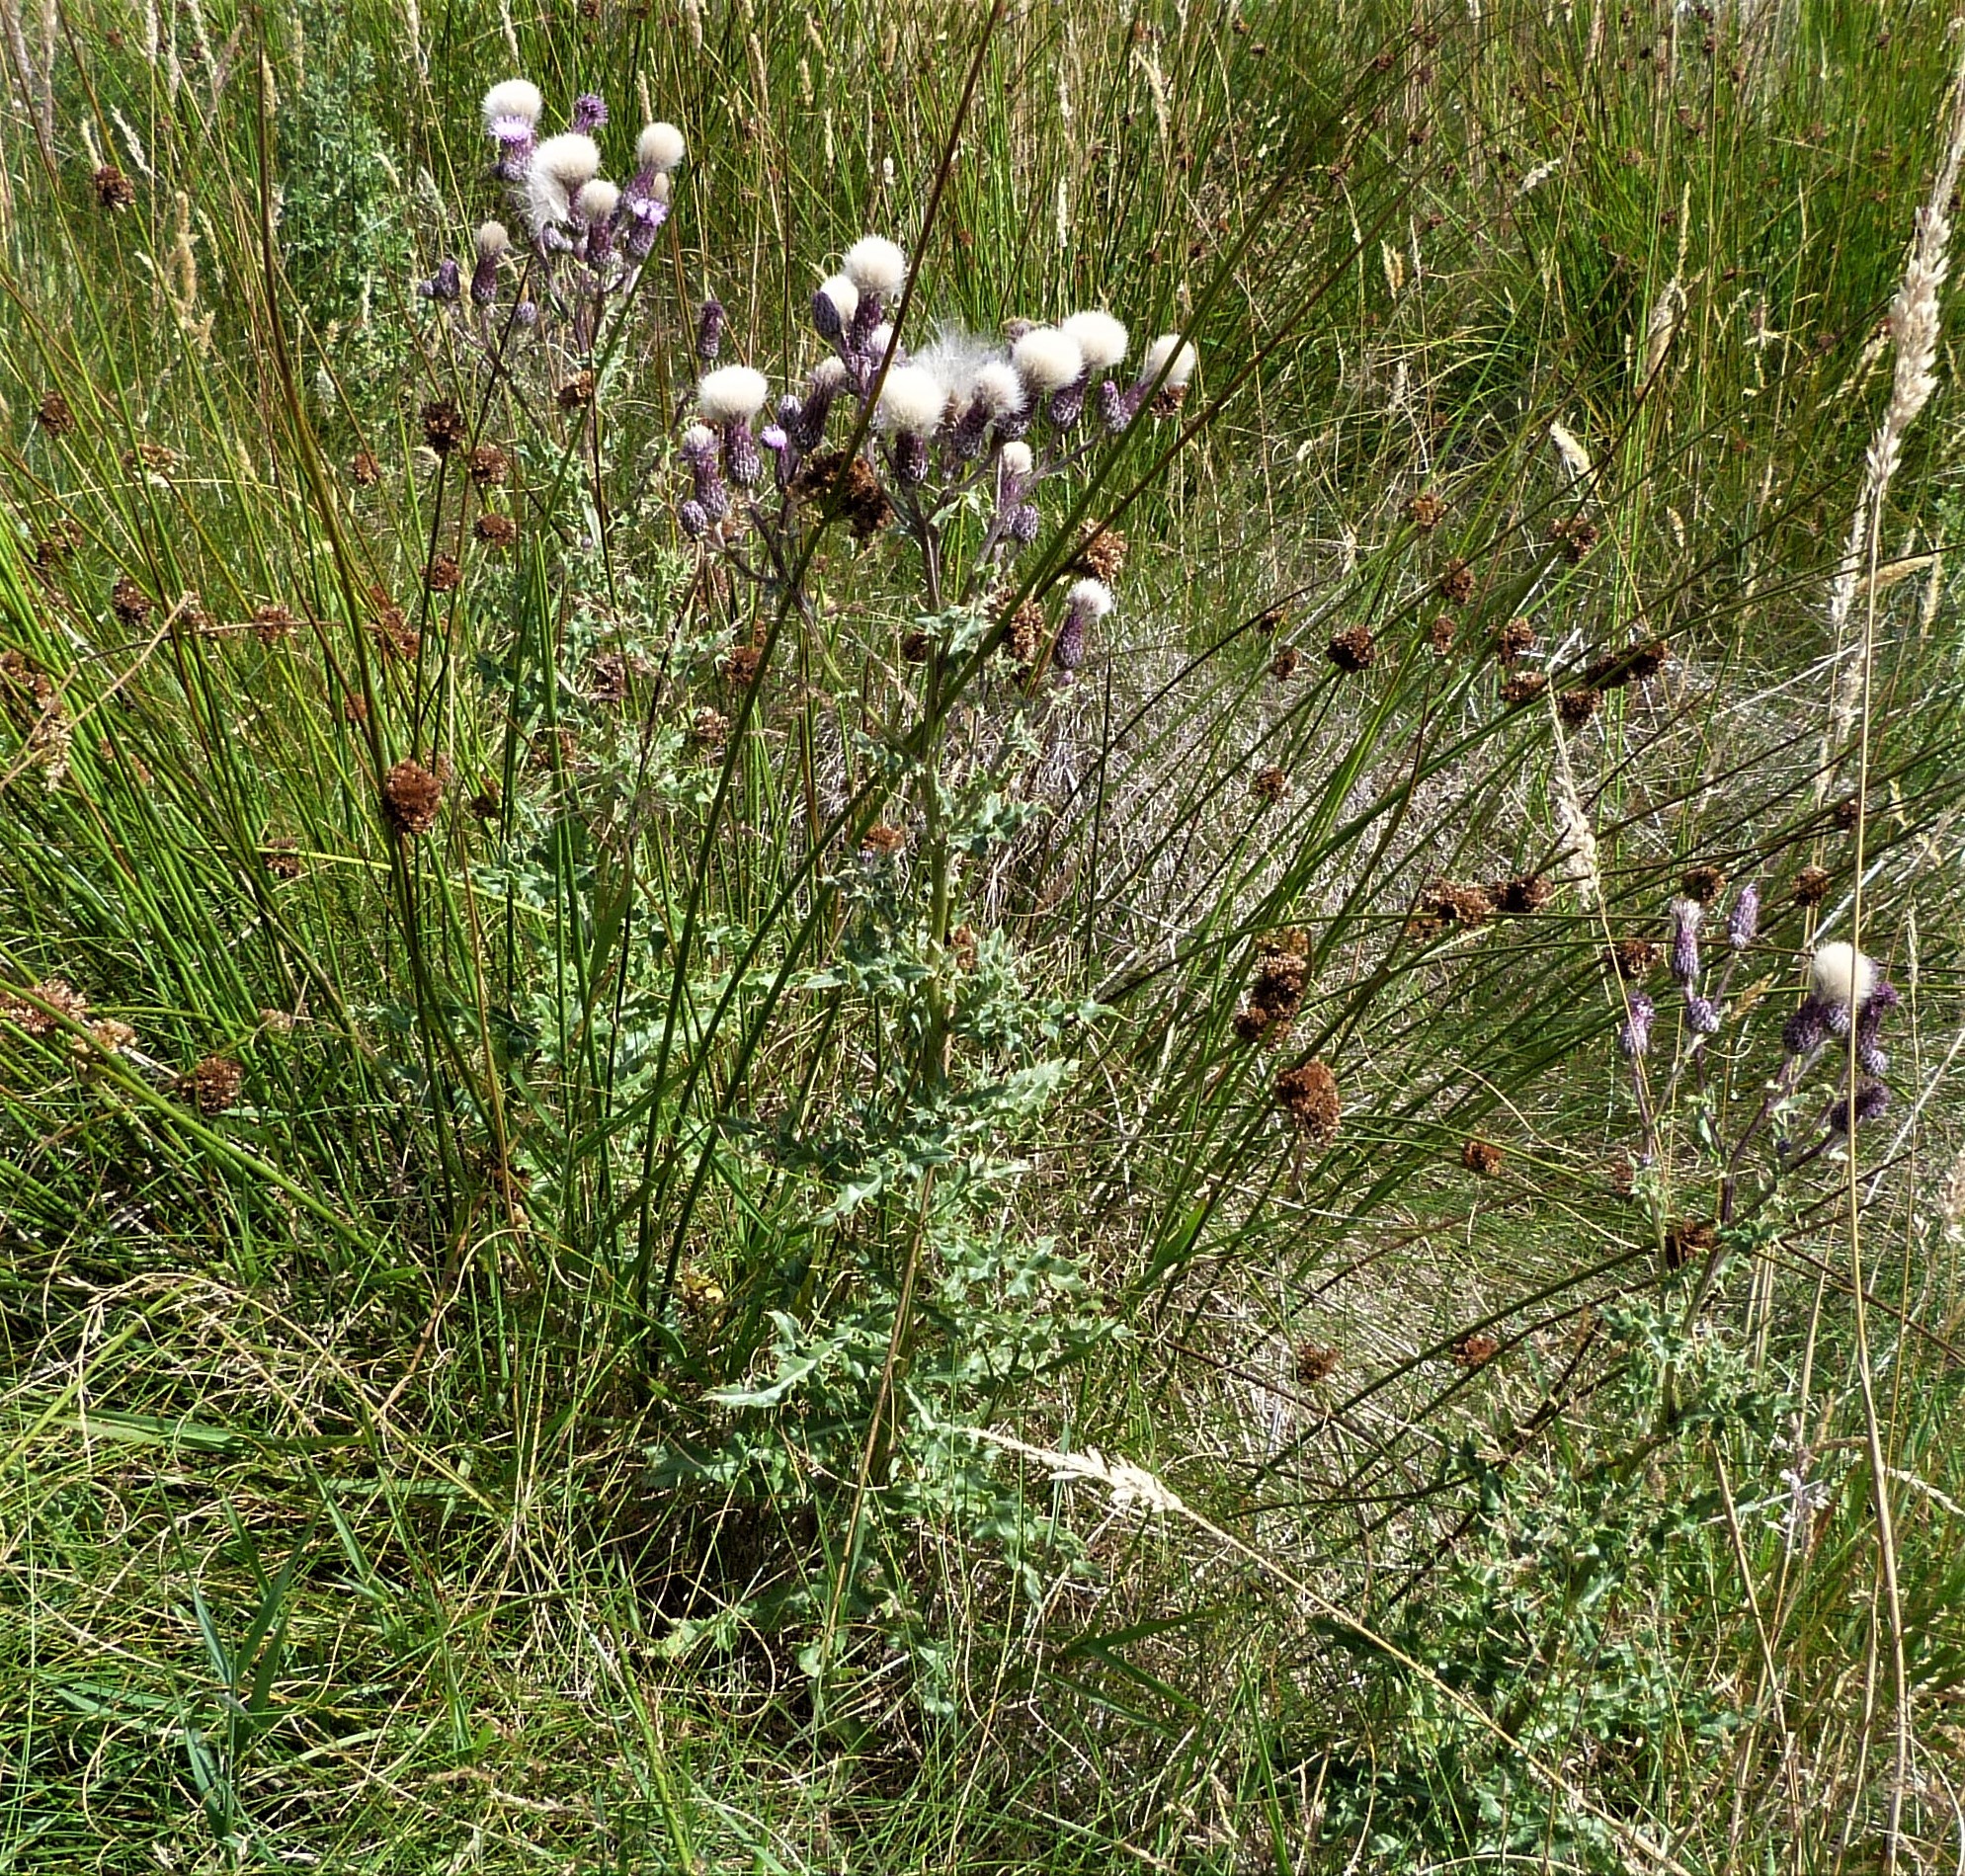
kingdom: Plantae
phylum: Tracheophyta
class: Magnoliopsida
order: Asterales
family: Asteraceae
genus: Cirsium
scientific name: Cirsium arvense
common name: Creeping thistle
